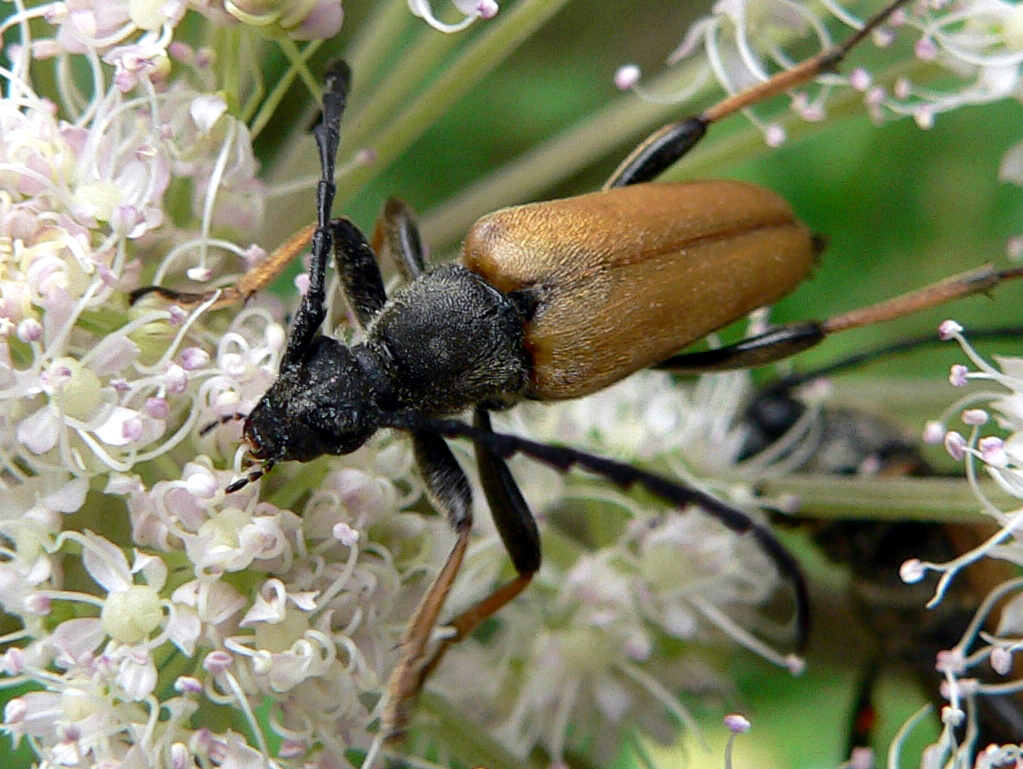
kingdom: Animalia
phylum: Arthropoda
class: Insecta
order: Coleoptera
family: Cerambycidae
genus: Stictoleptura
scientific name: Stictoleptura rubra
